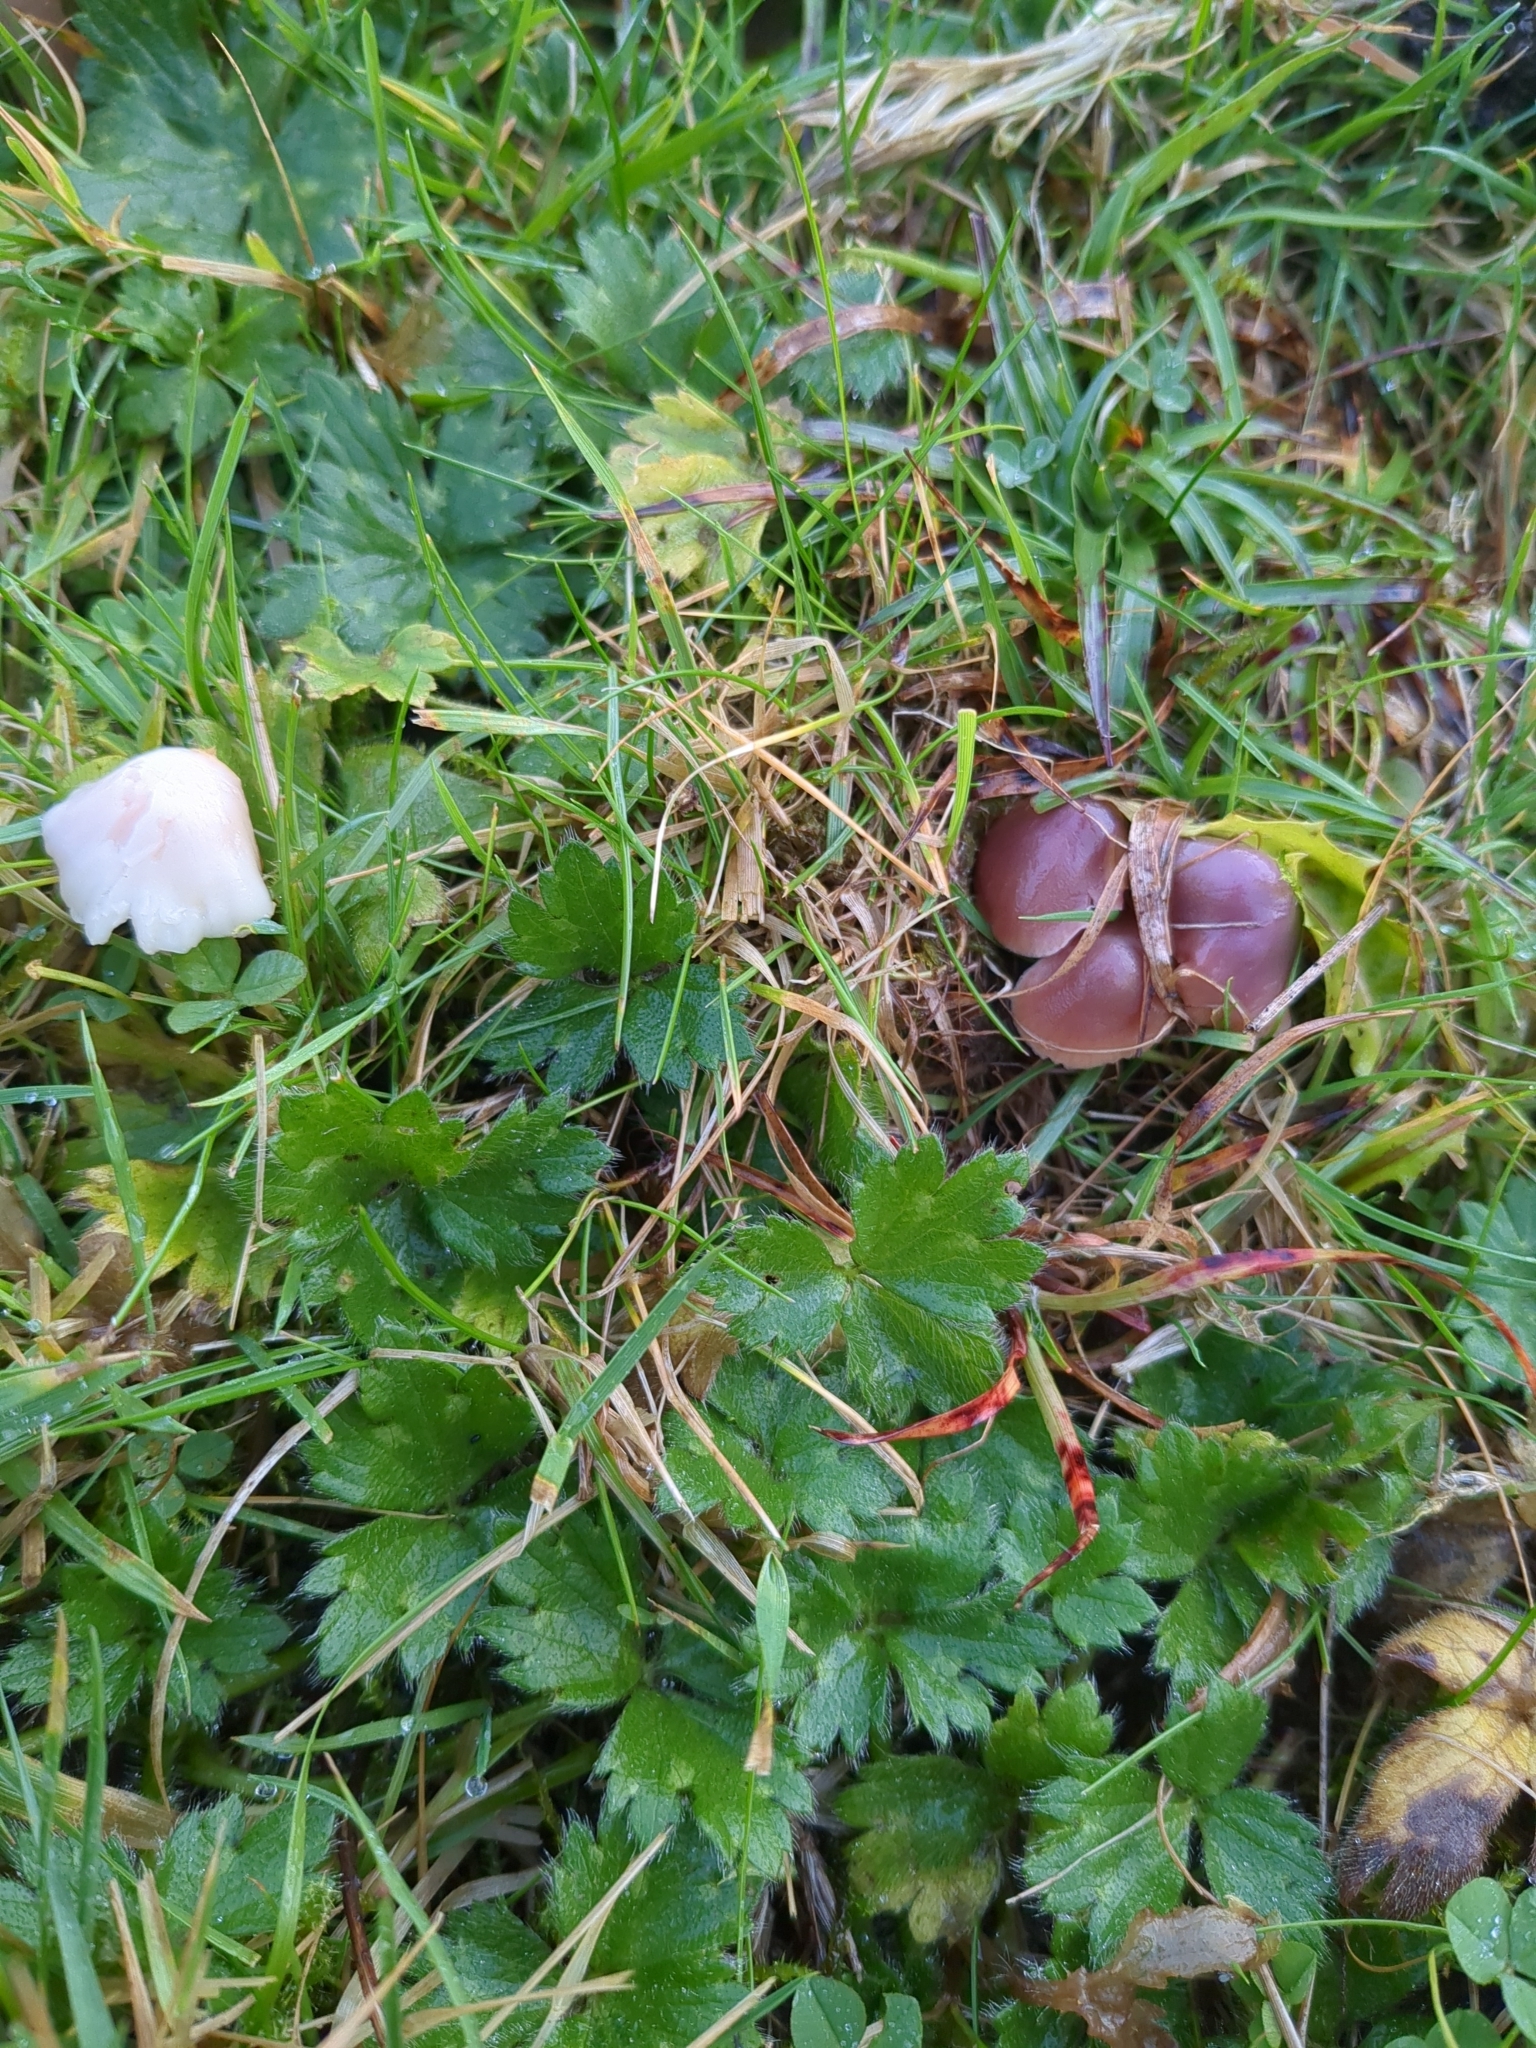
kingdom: Fungi
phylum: Basidiomycota
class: Agaricomycetes
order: Agaricales
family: Hygrophoraceae
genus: Gliophorus
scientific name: Gliophorus reginae
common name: Jubilee waxcap
